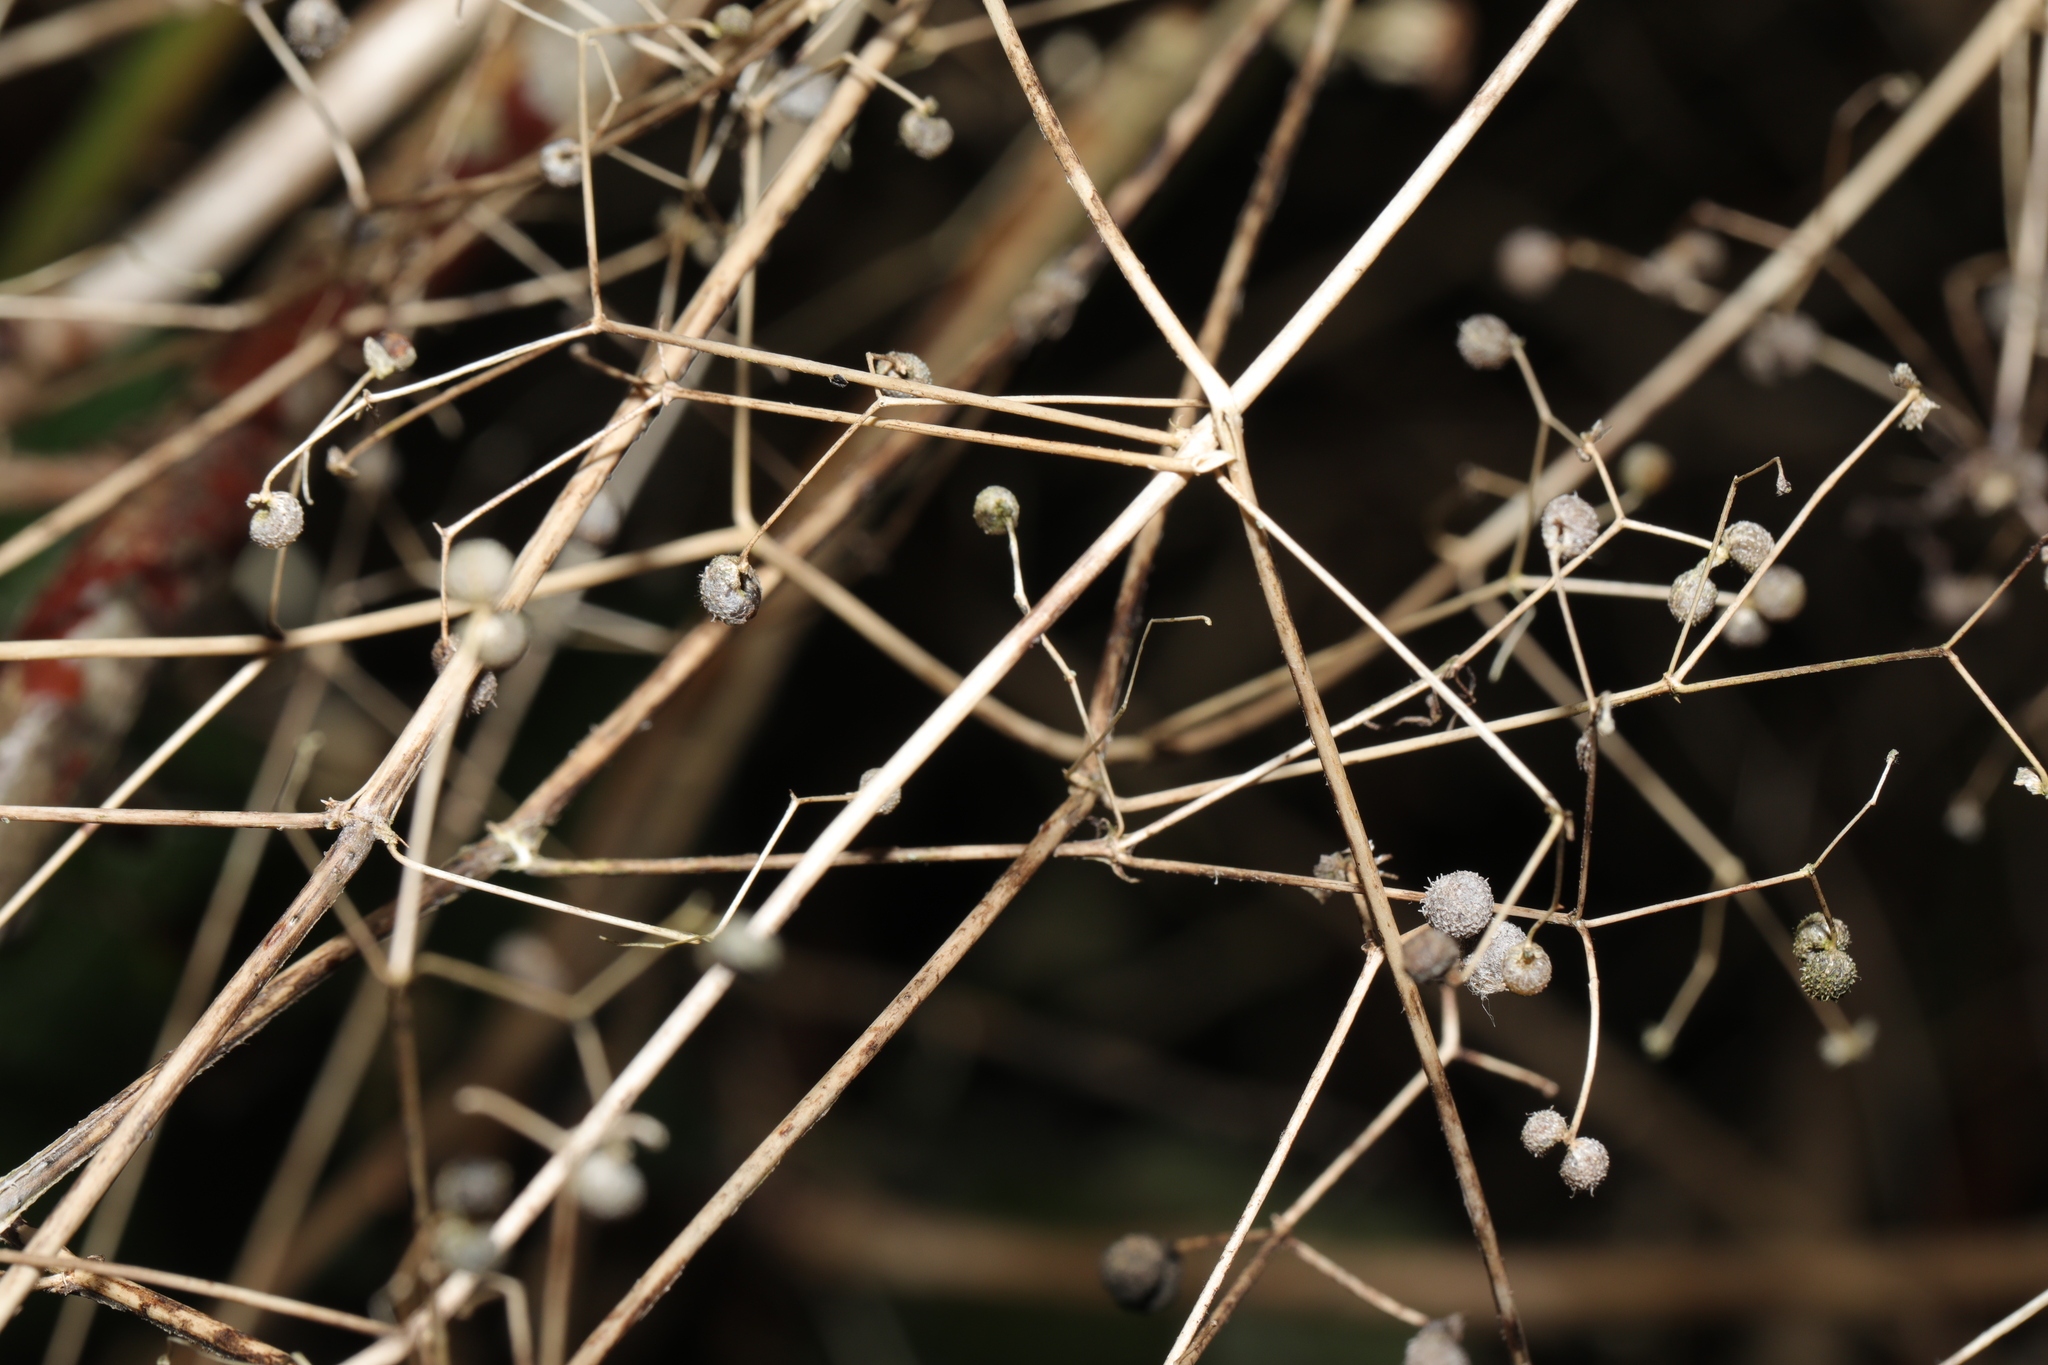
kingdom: Plantae
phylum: Tracheophyta
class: Magnoliopsida
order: Gentianales
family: Rubiaceae
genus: Galium
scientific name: Galium aparine
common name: Cleavers
